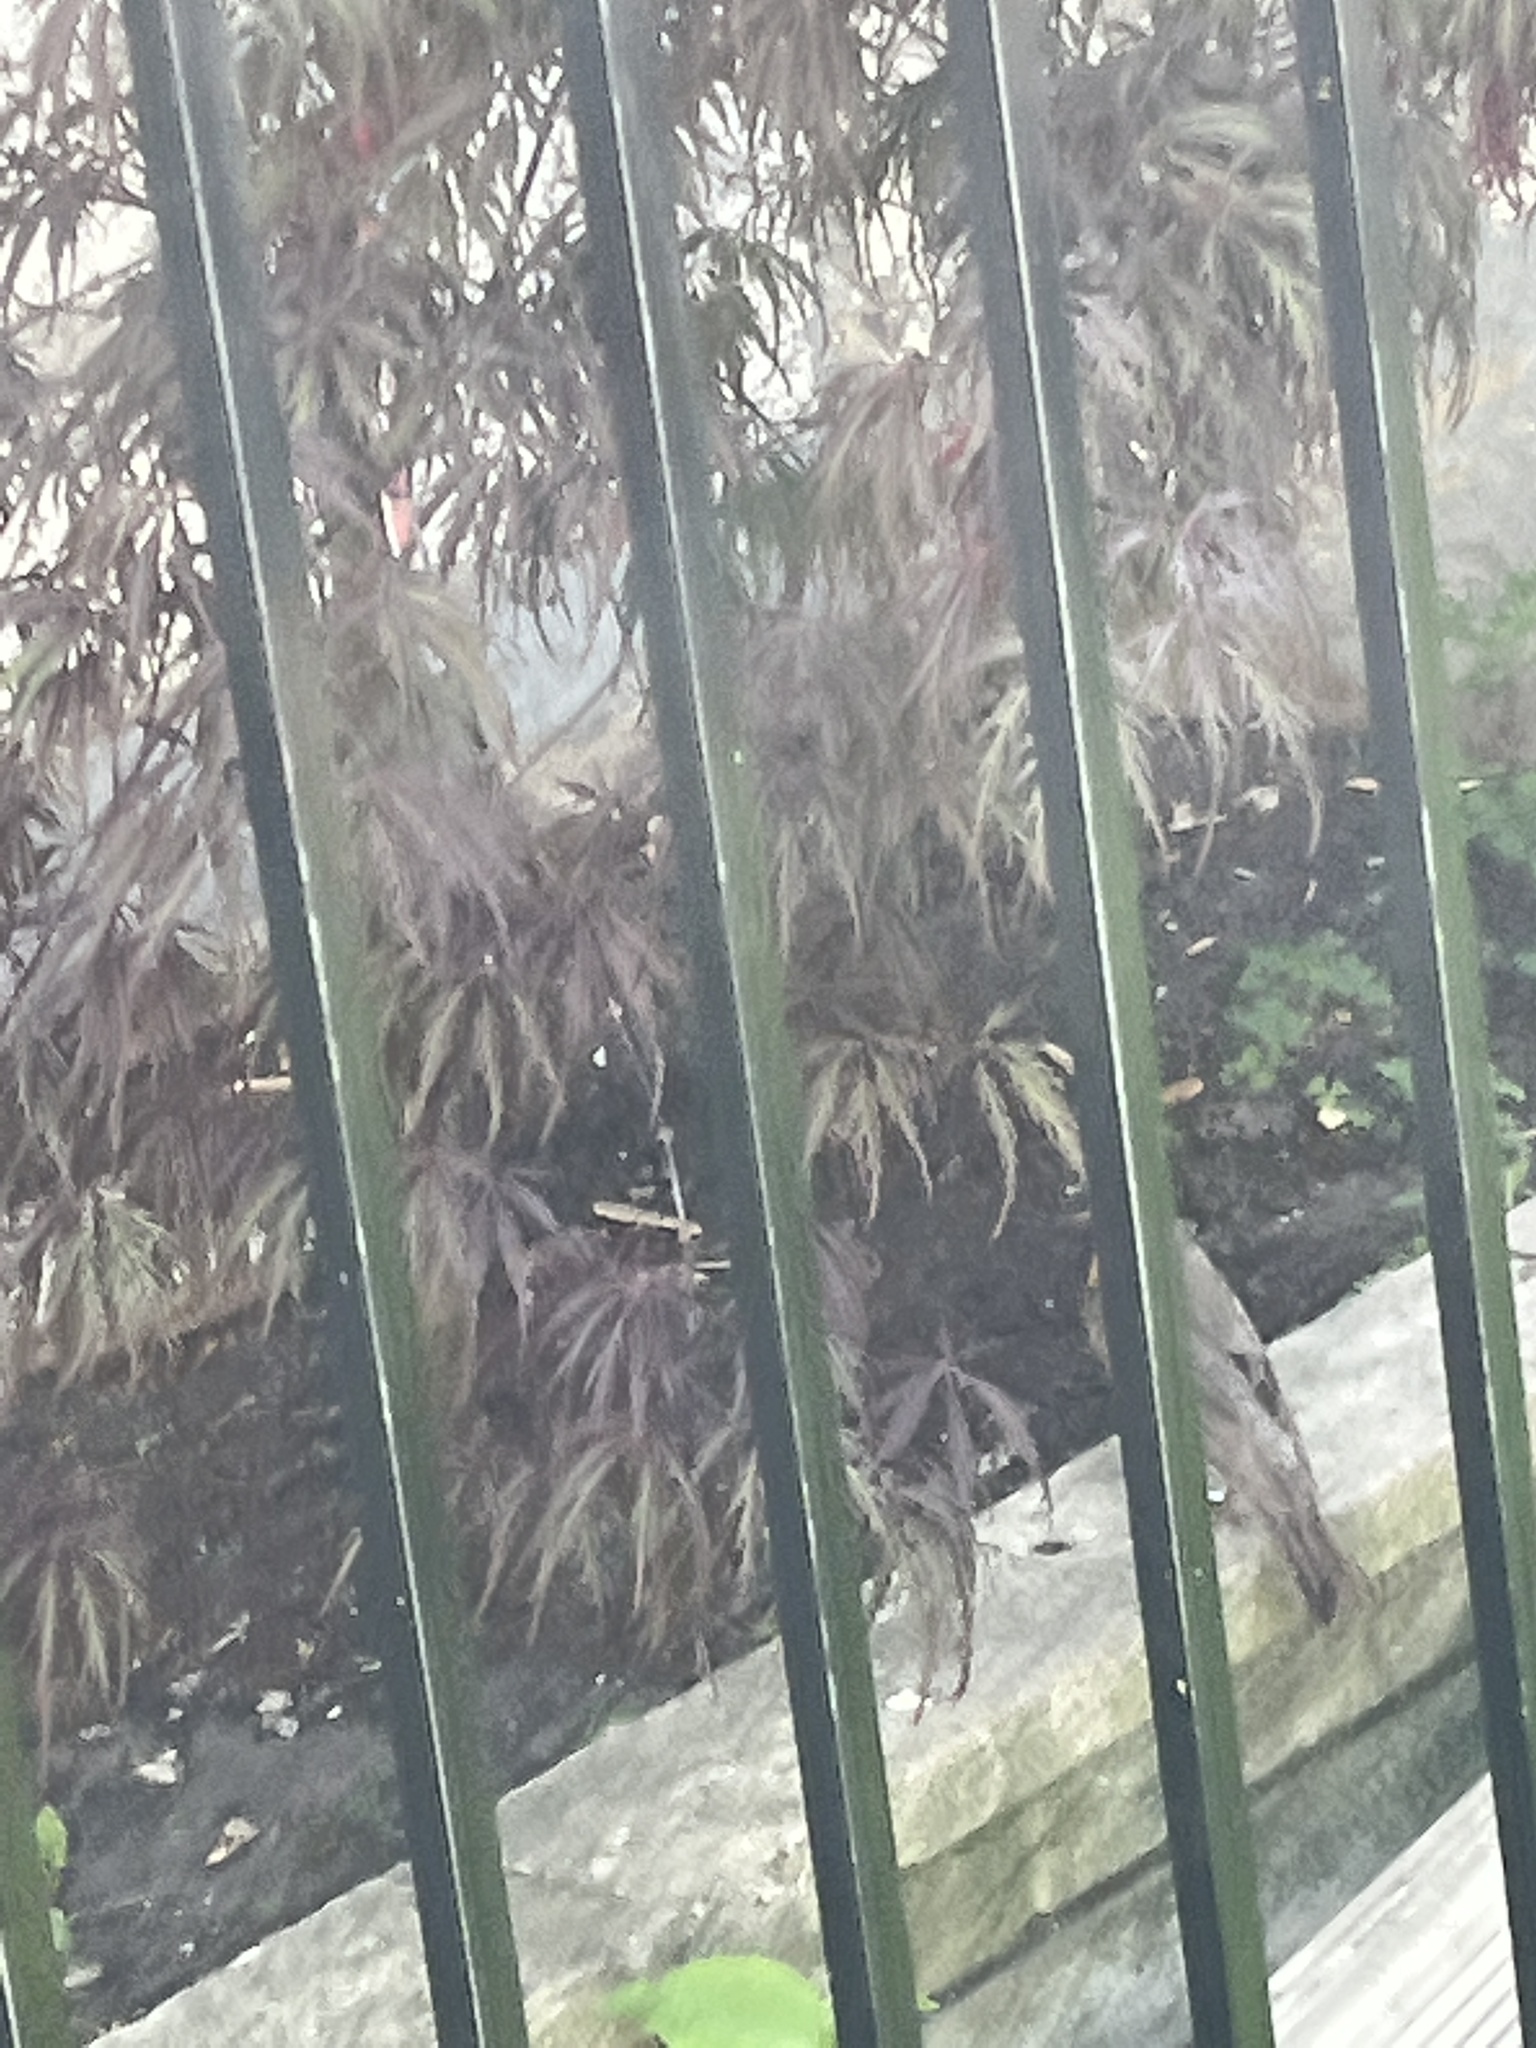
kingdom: Animalia
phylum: Chordata
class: Aves
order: Passeriformes
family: Turdidae
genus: Turdus
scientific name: Turdus migratorius
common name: American robin
